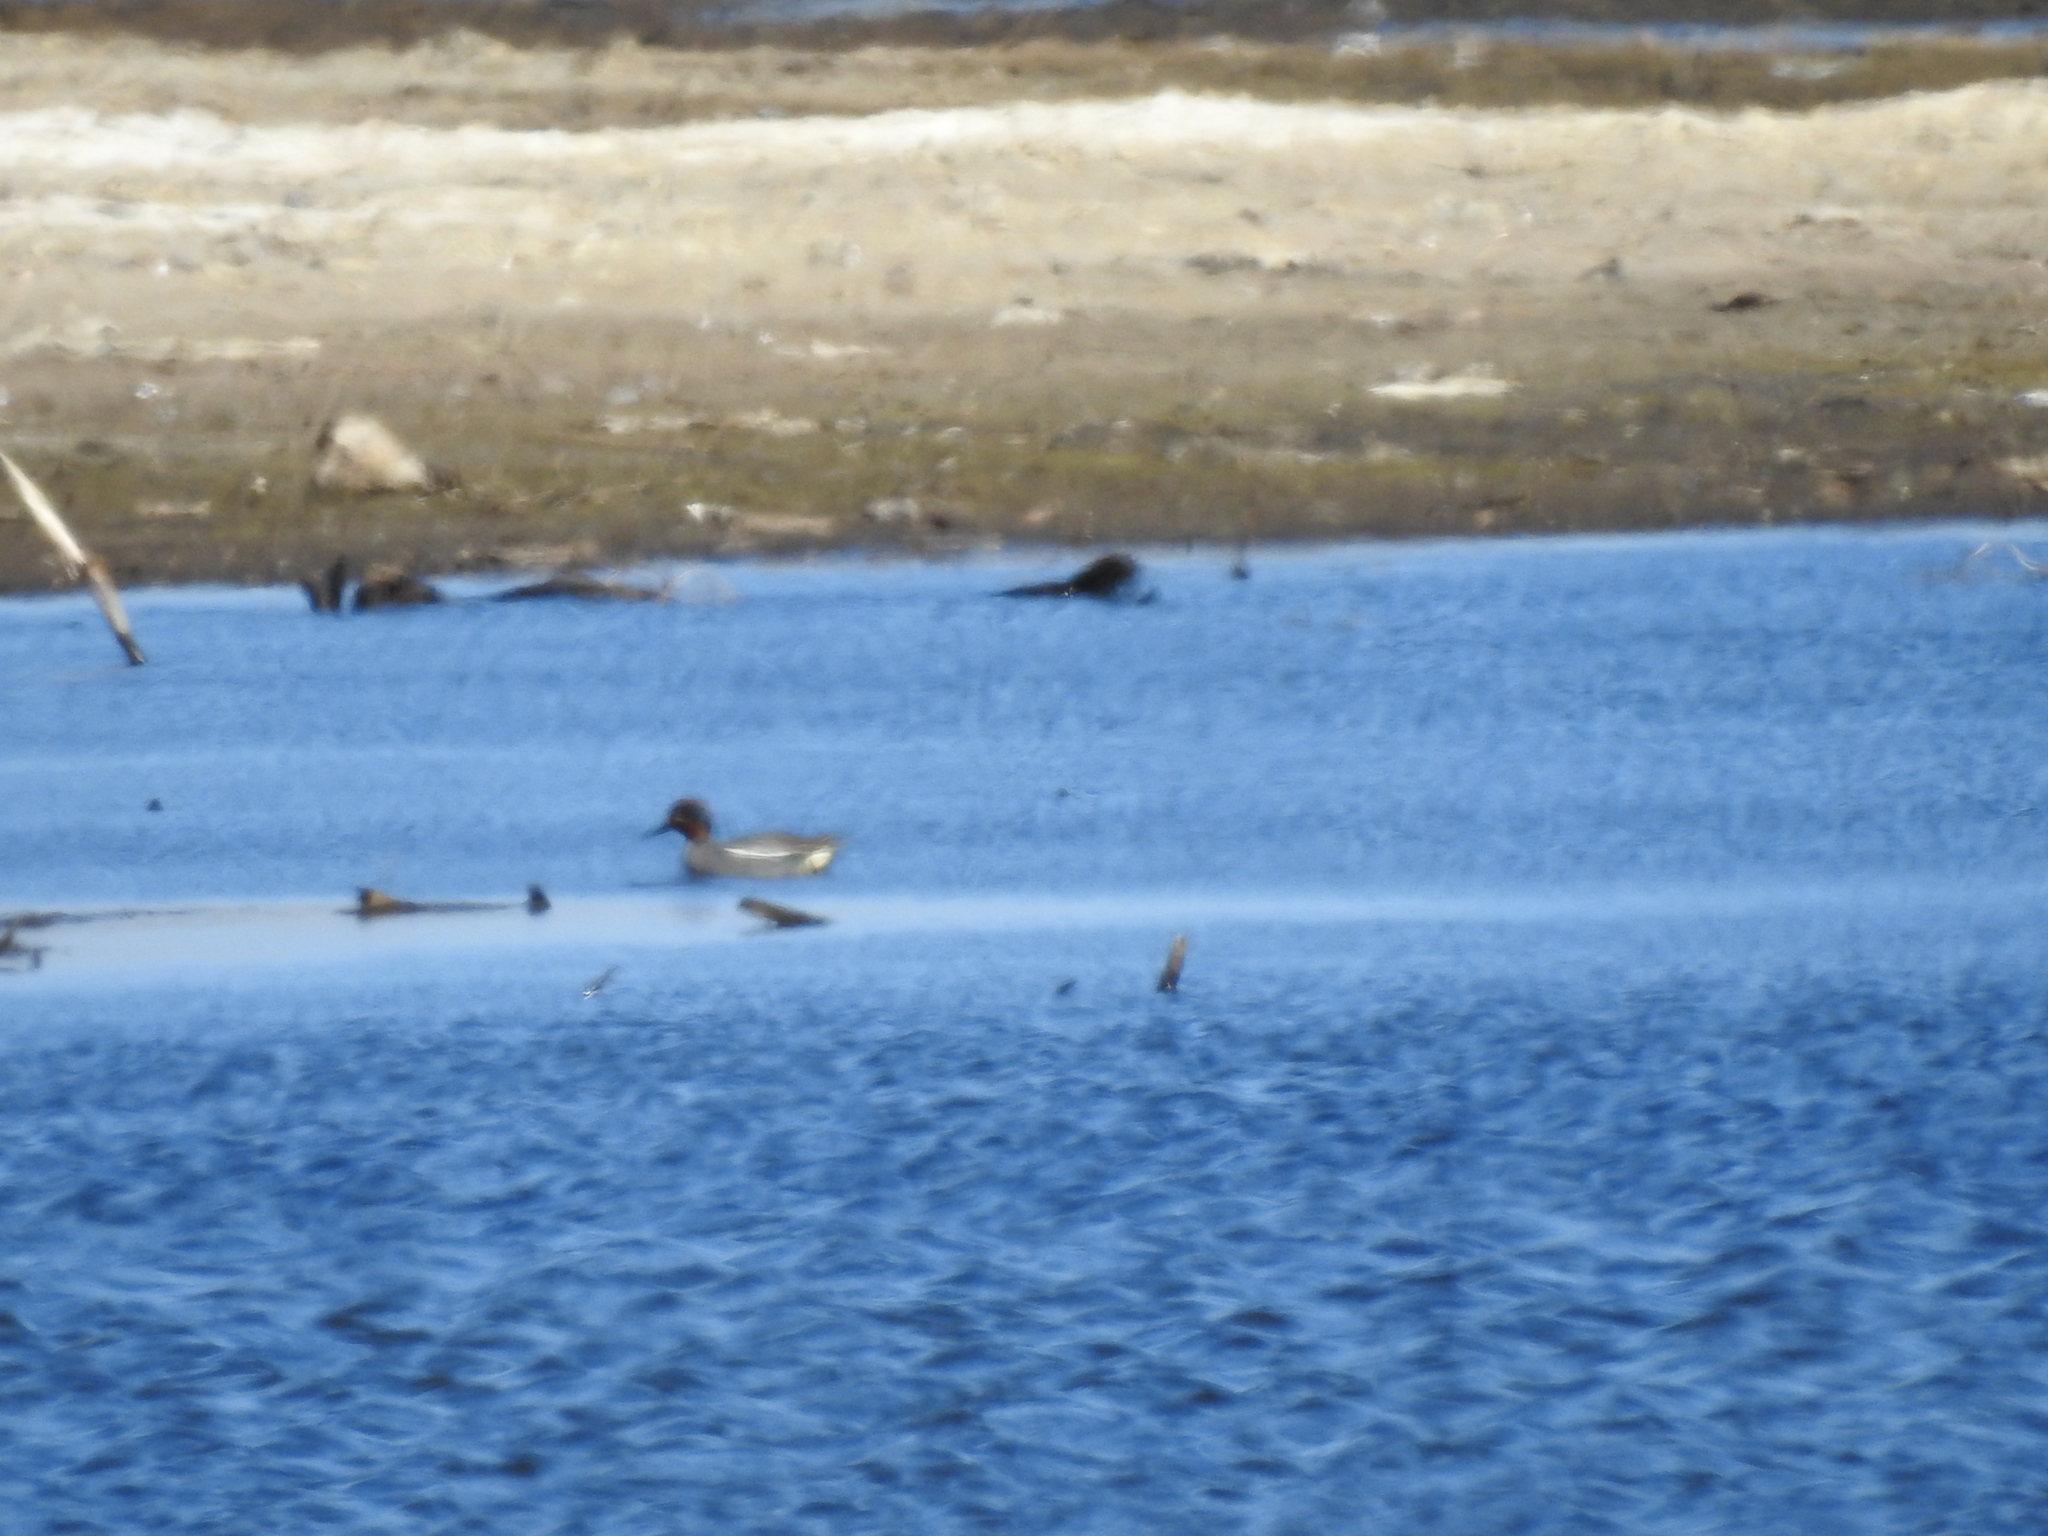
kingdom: Animalia
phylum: Chordata
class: Aves
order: Anseriformes
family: Anatidae
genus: Anas
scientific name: Anas crecca
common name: Eurasian teal
